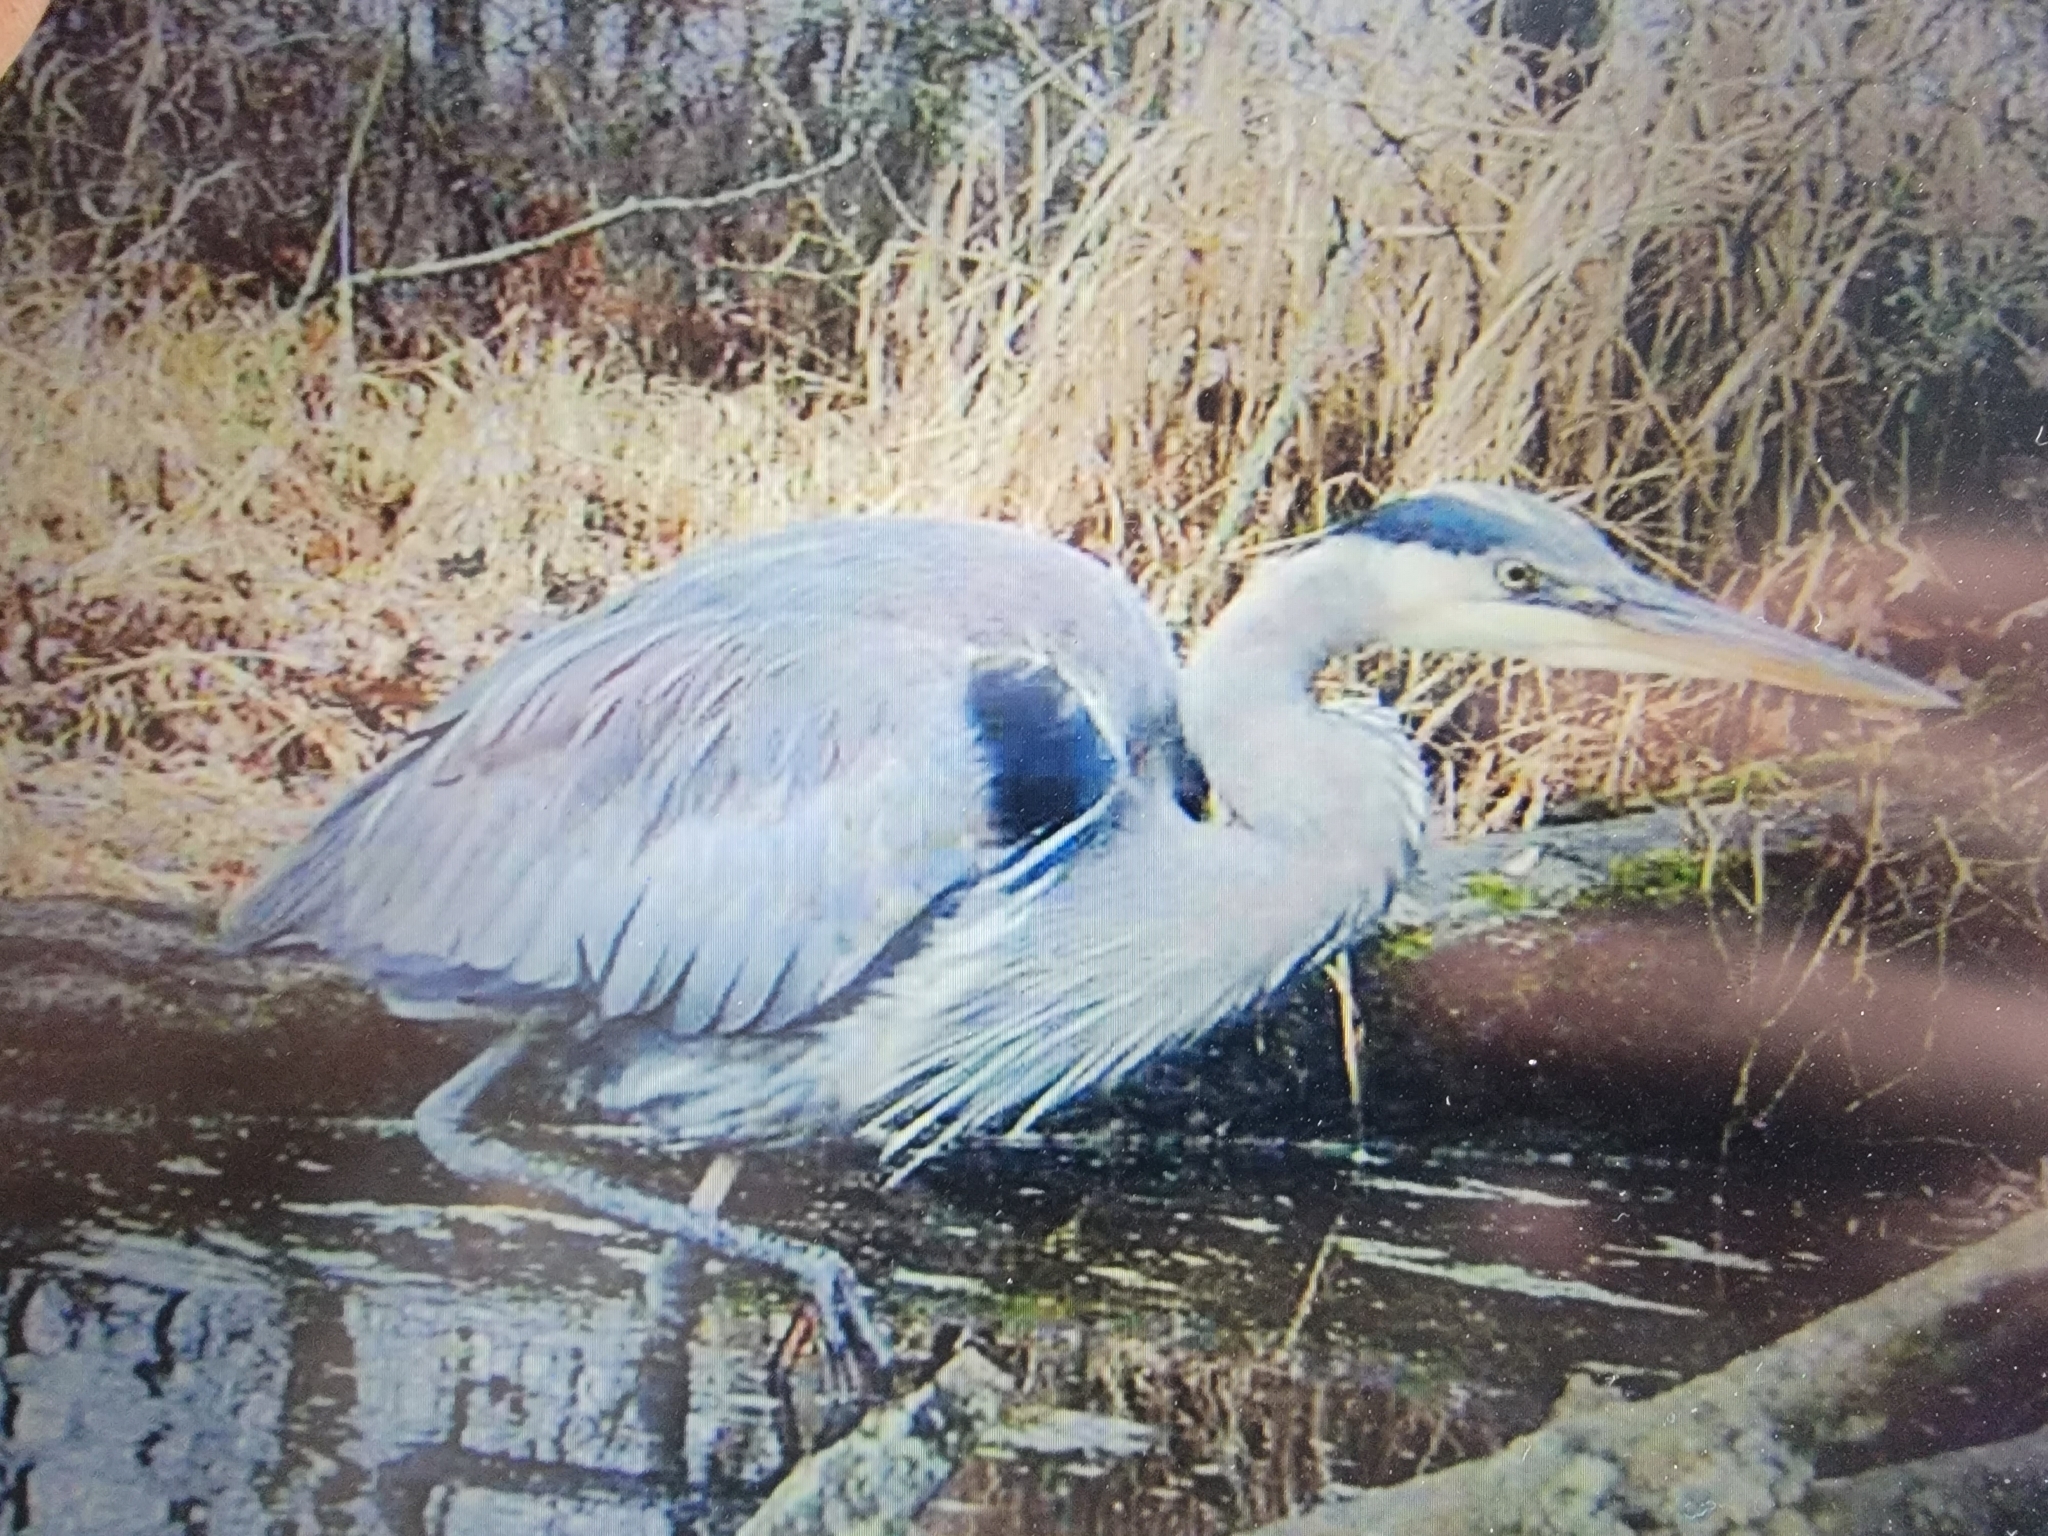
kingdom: Animalia
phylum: Chordata
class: Aves
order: Pelecaniformes
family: Ardeidae
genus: Ardea
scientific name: Ardea herodias
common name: Great blue heron
